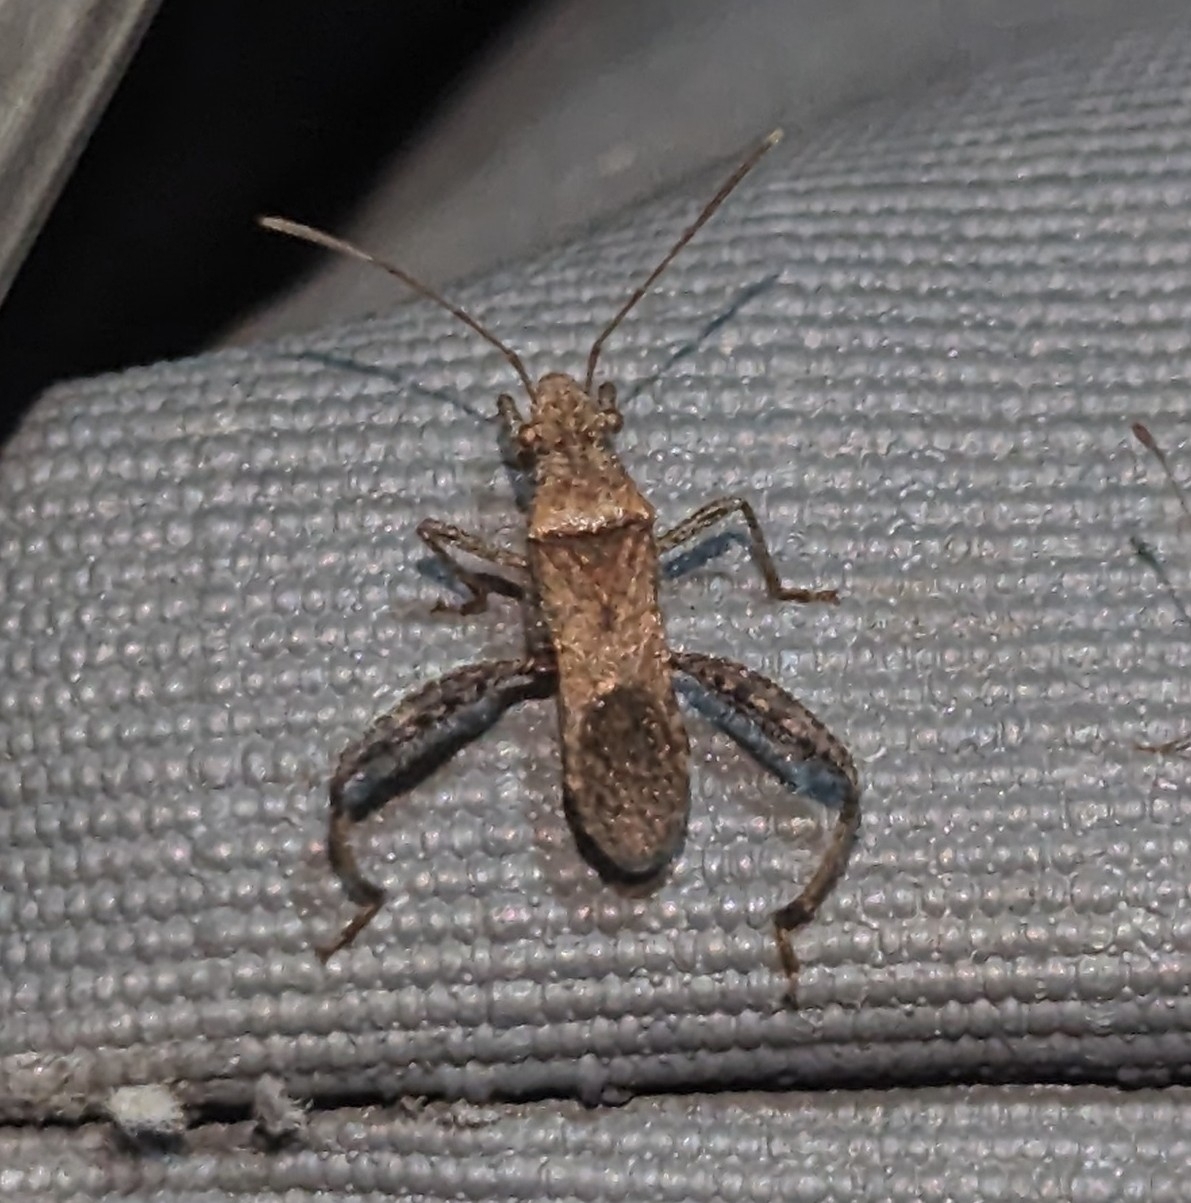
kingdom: Animalia
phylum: Arthropoda
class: Insecta
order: Hemiptera
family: Alydidae
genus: Heegeria
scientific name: Heegeria tangirica
